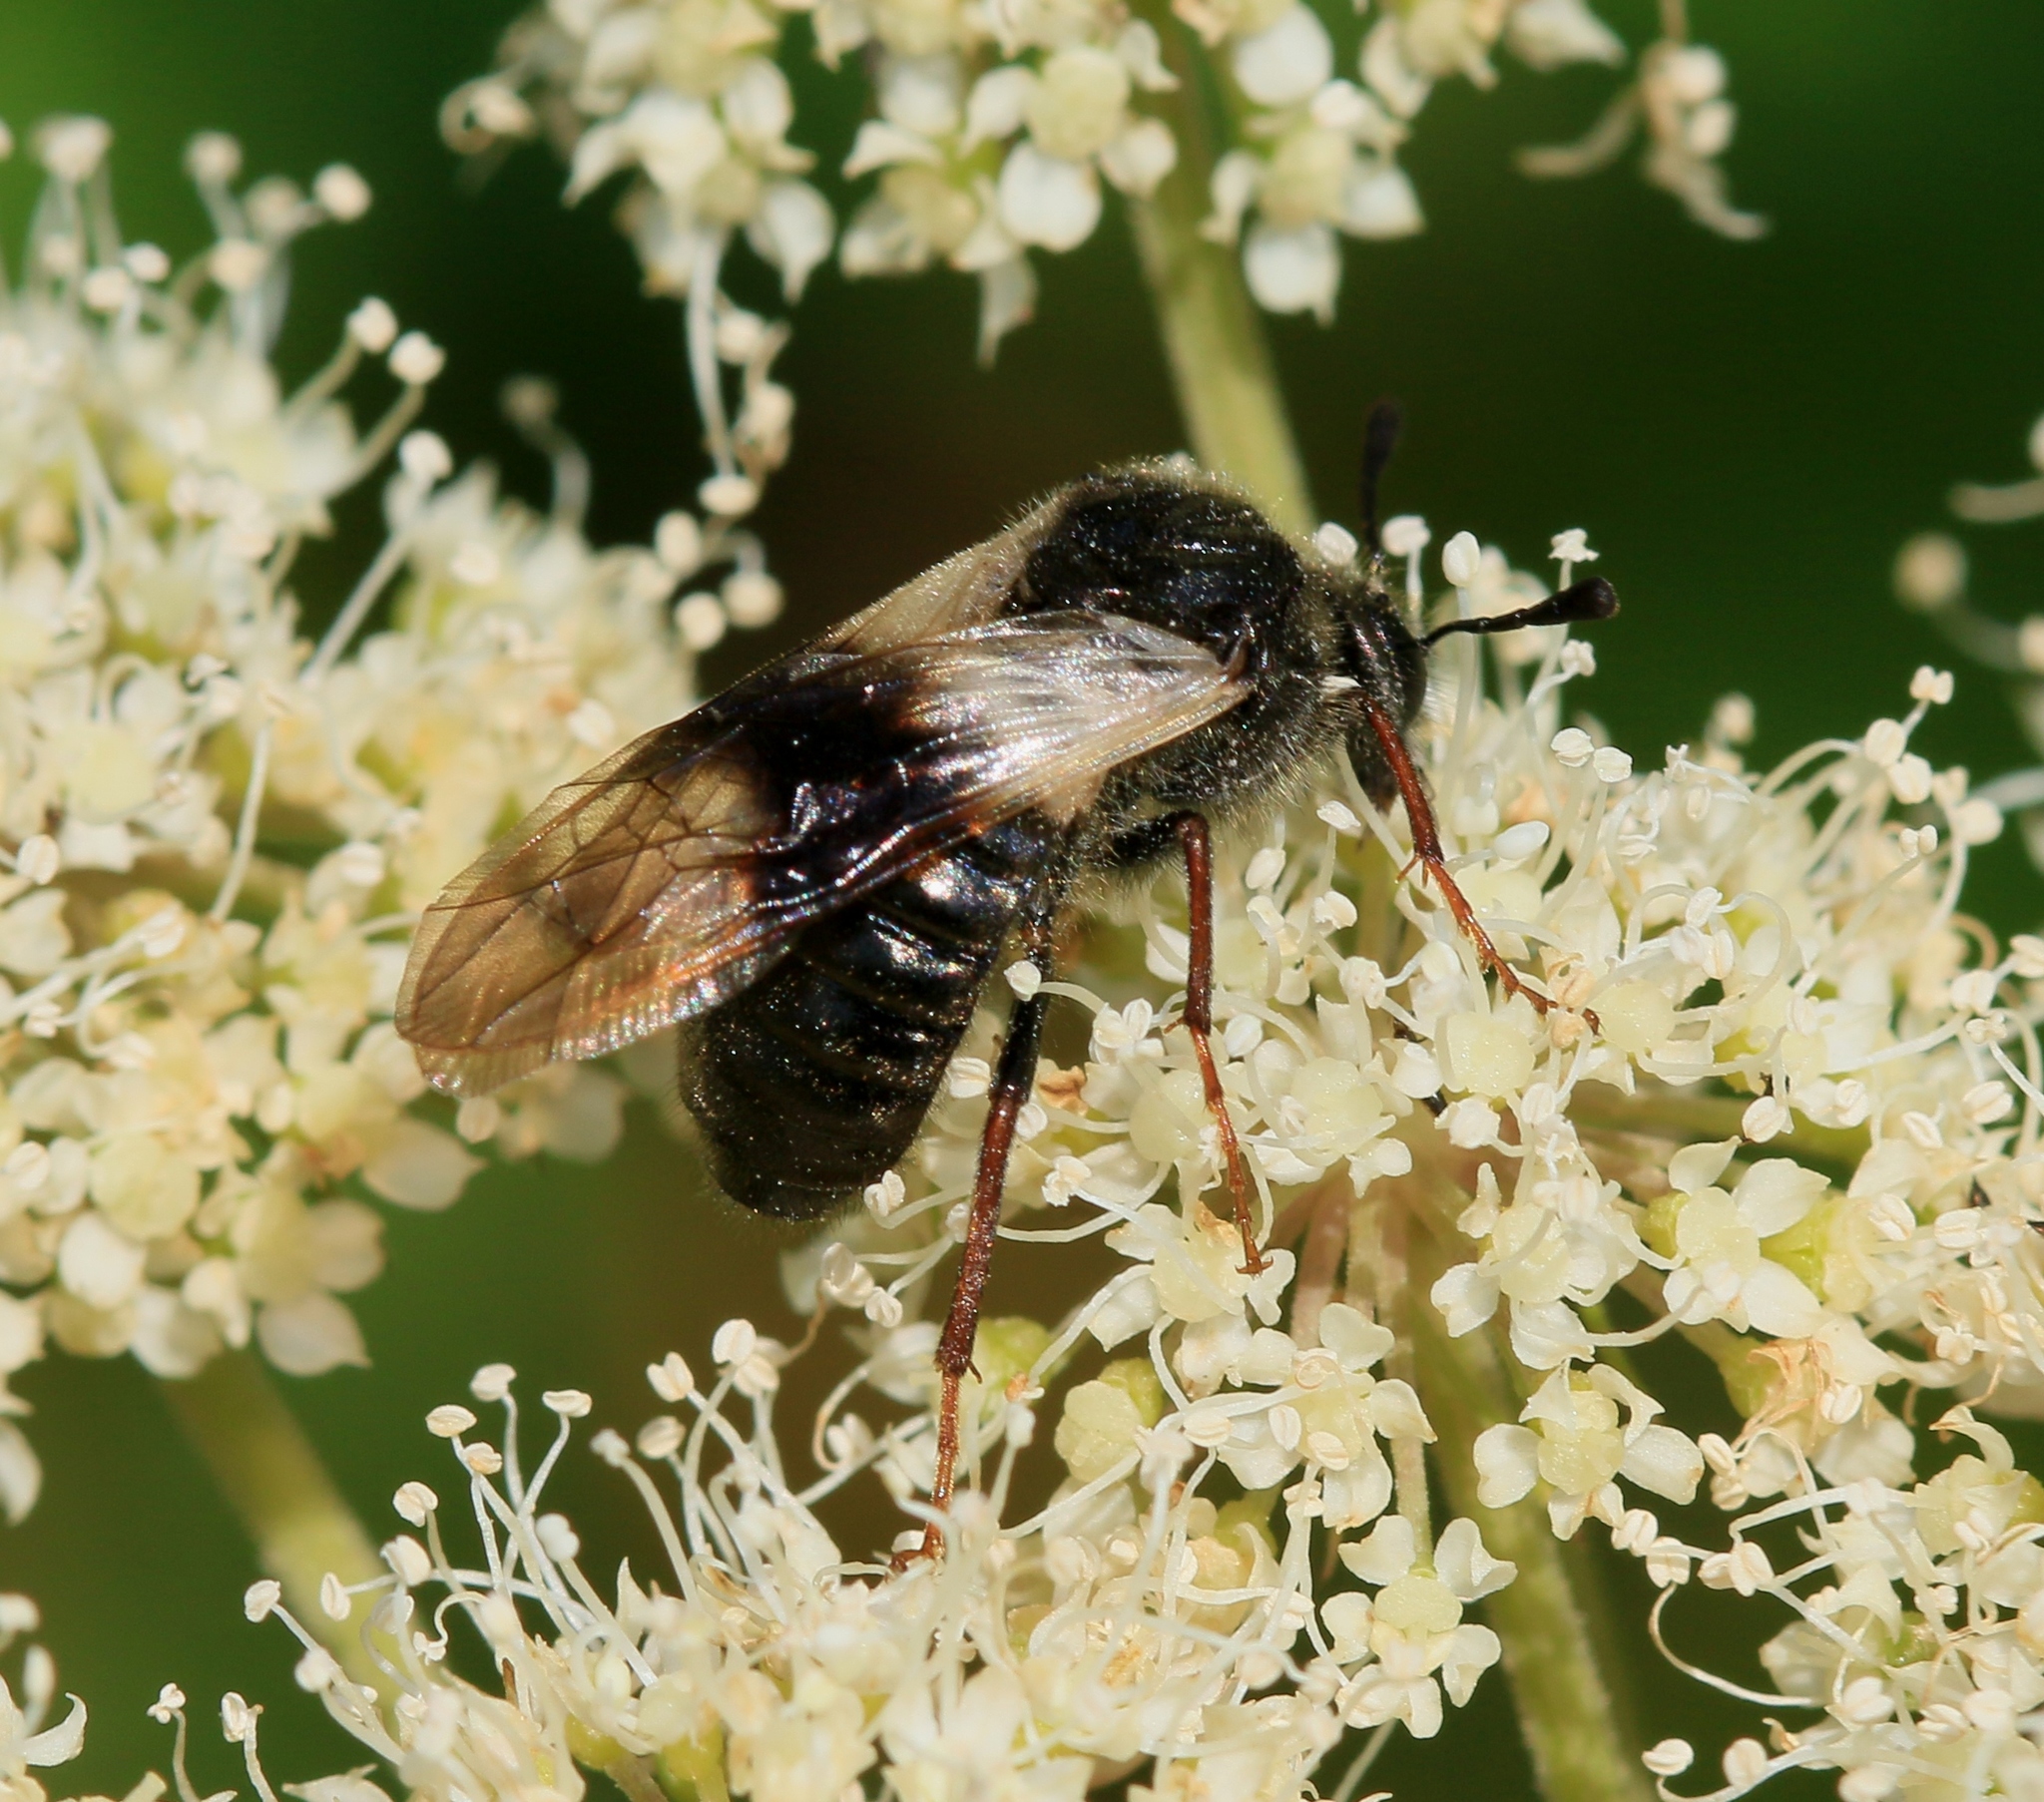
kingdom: Animalia
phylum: Arthropoda
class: Insecta
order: Hymenoptera
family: Cimbicidae
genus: Abia
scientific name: Abia fasciata
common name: Banded honeysuckle sawfly
